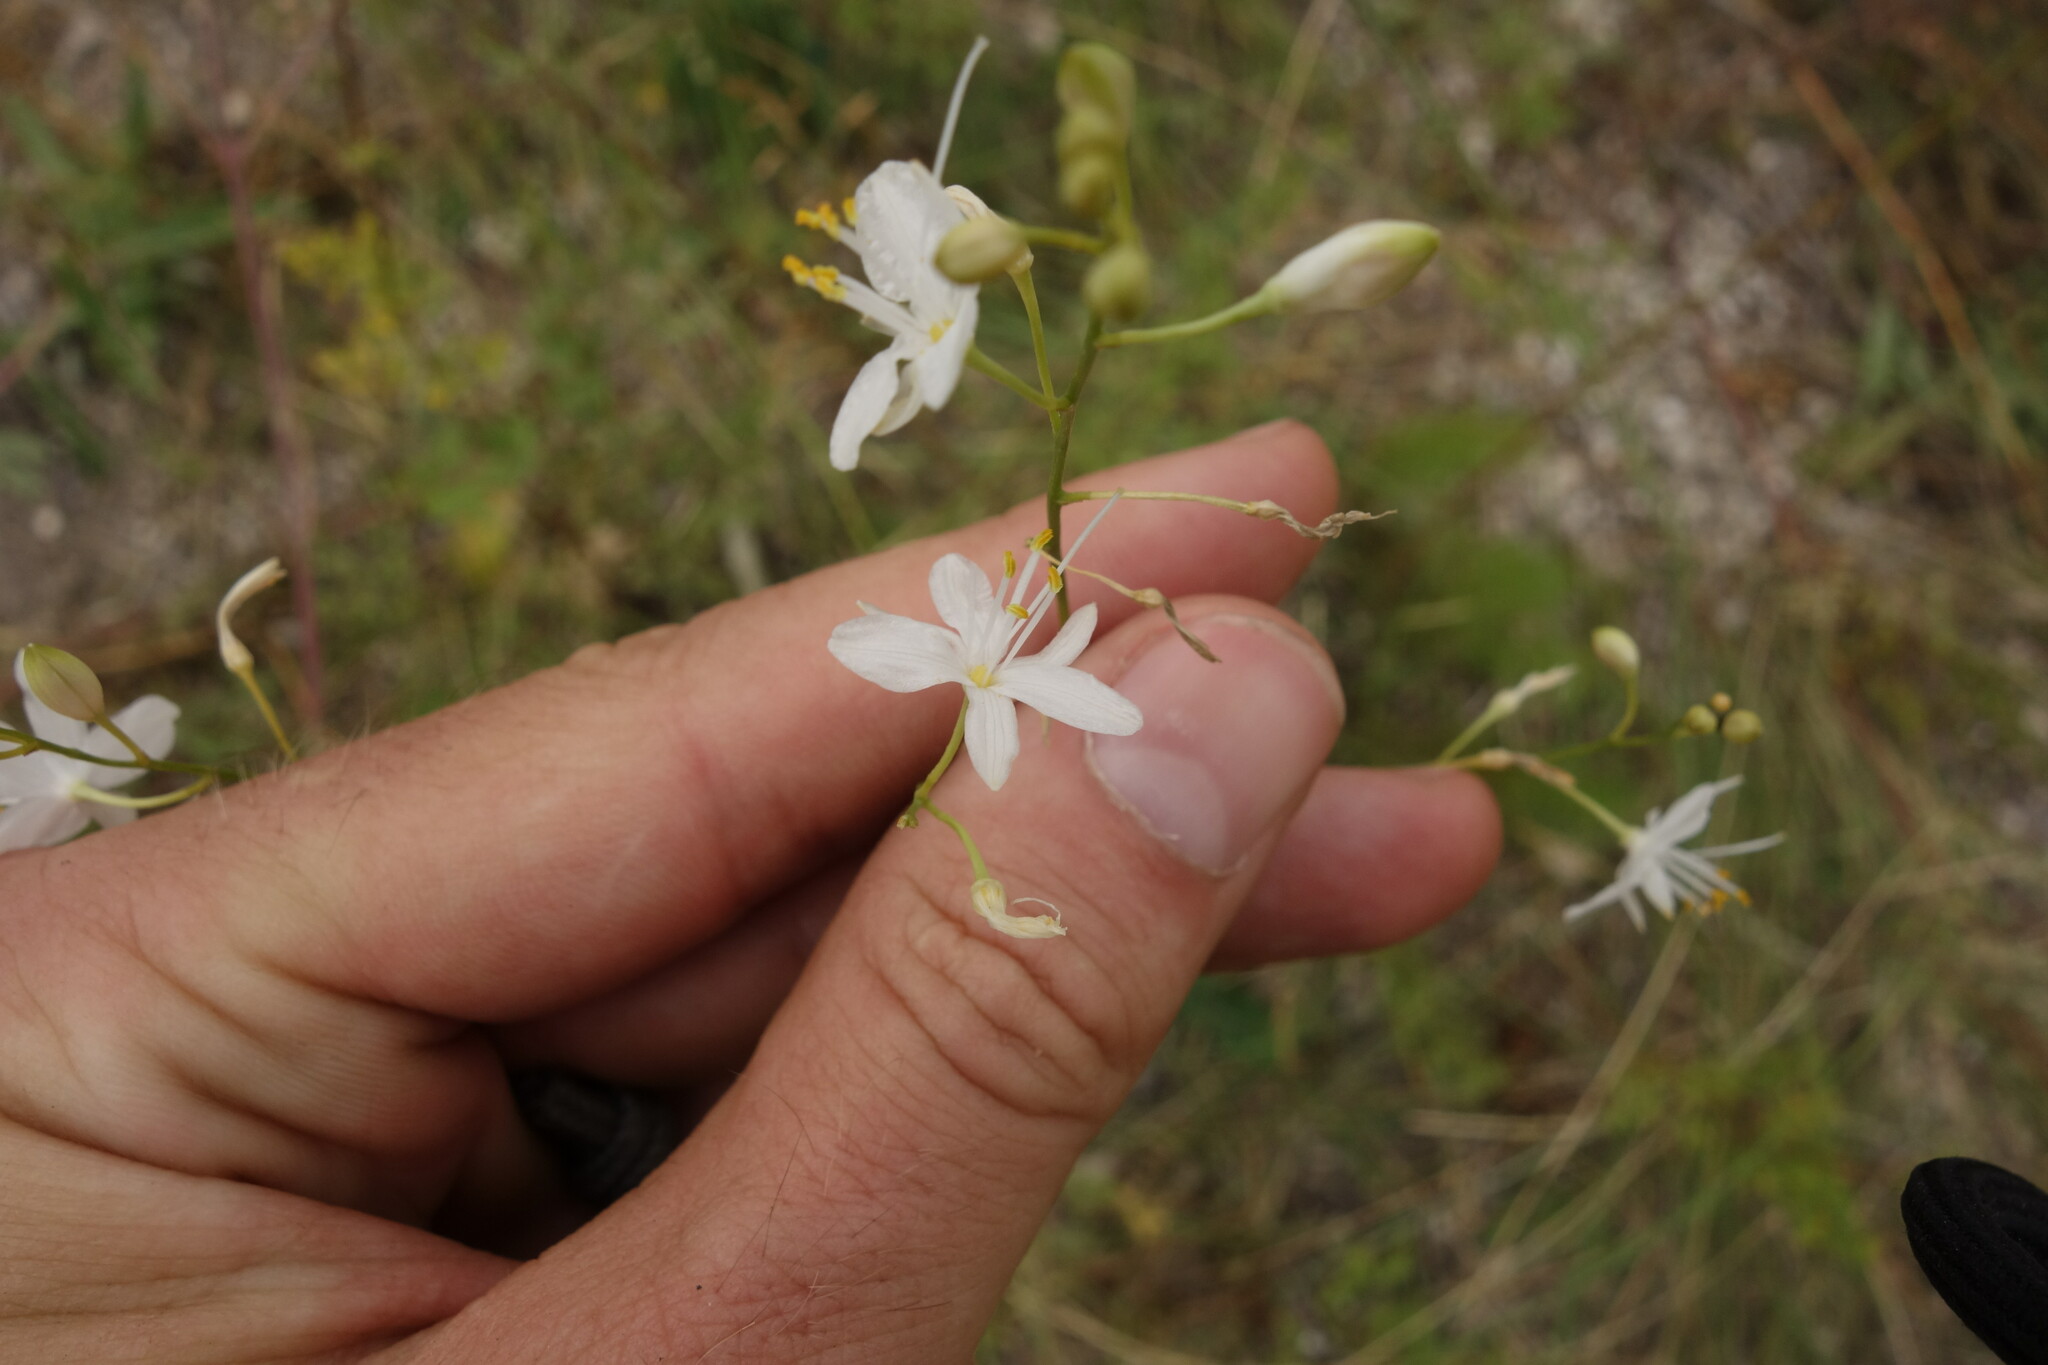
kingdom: Plantae
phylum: Tracheophyta
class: Liliopsida
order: Asparagales
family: Asparagaceae
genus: Anthericum
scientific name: Anthericum ramosum
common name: Branched st. bernard's-lily
